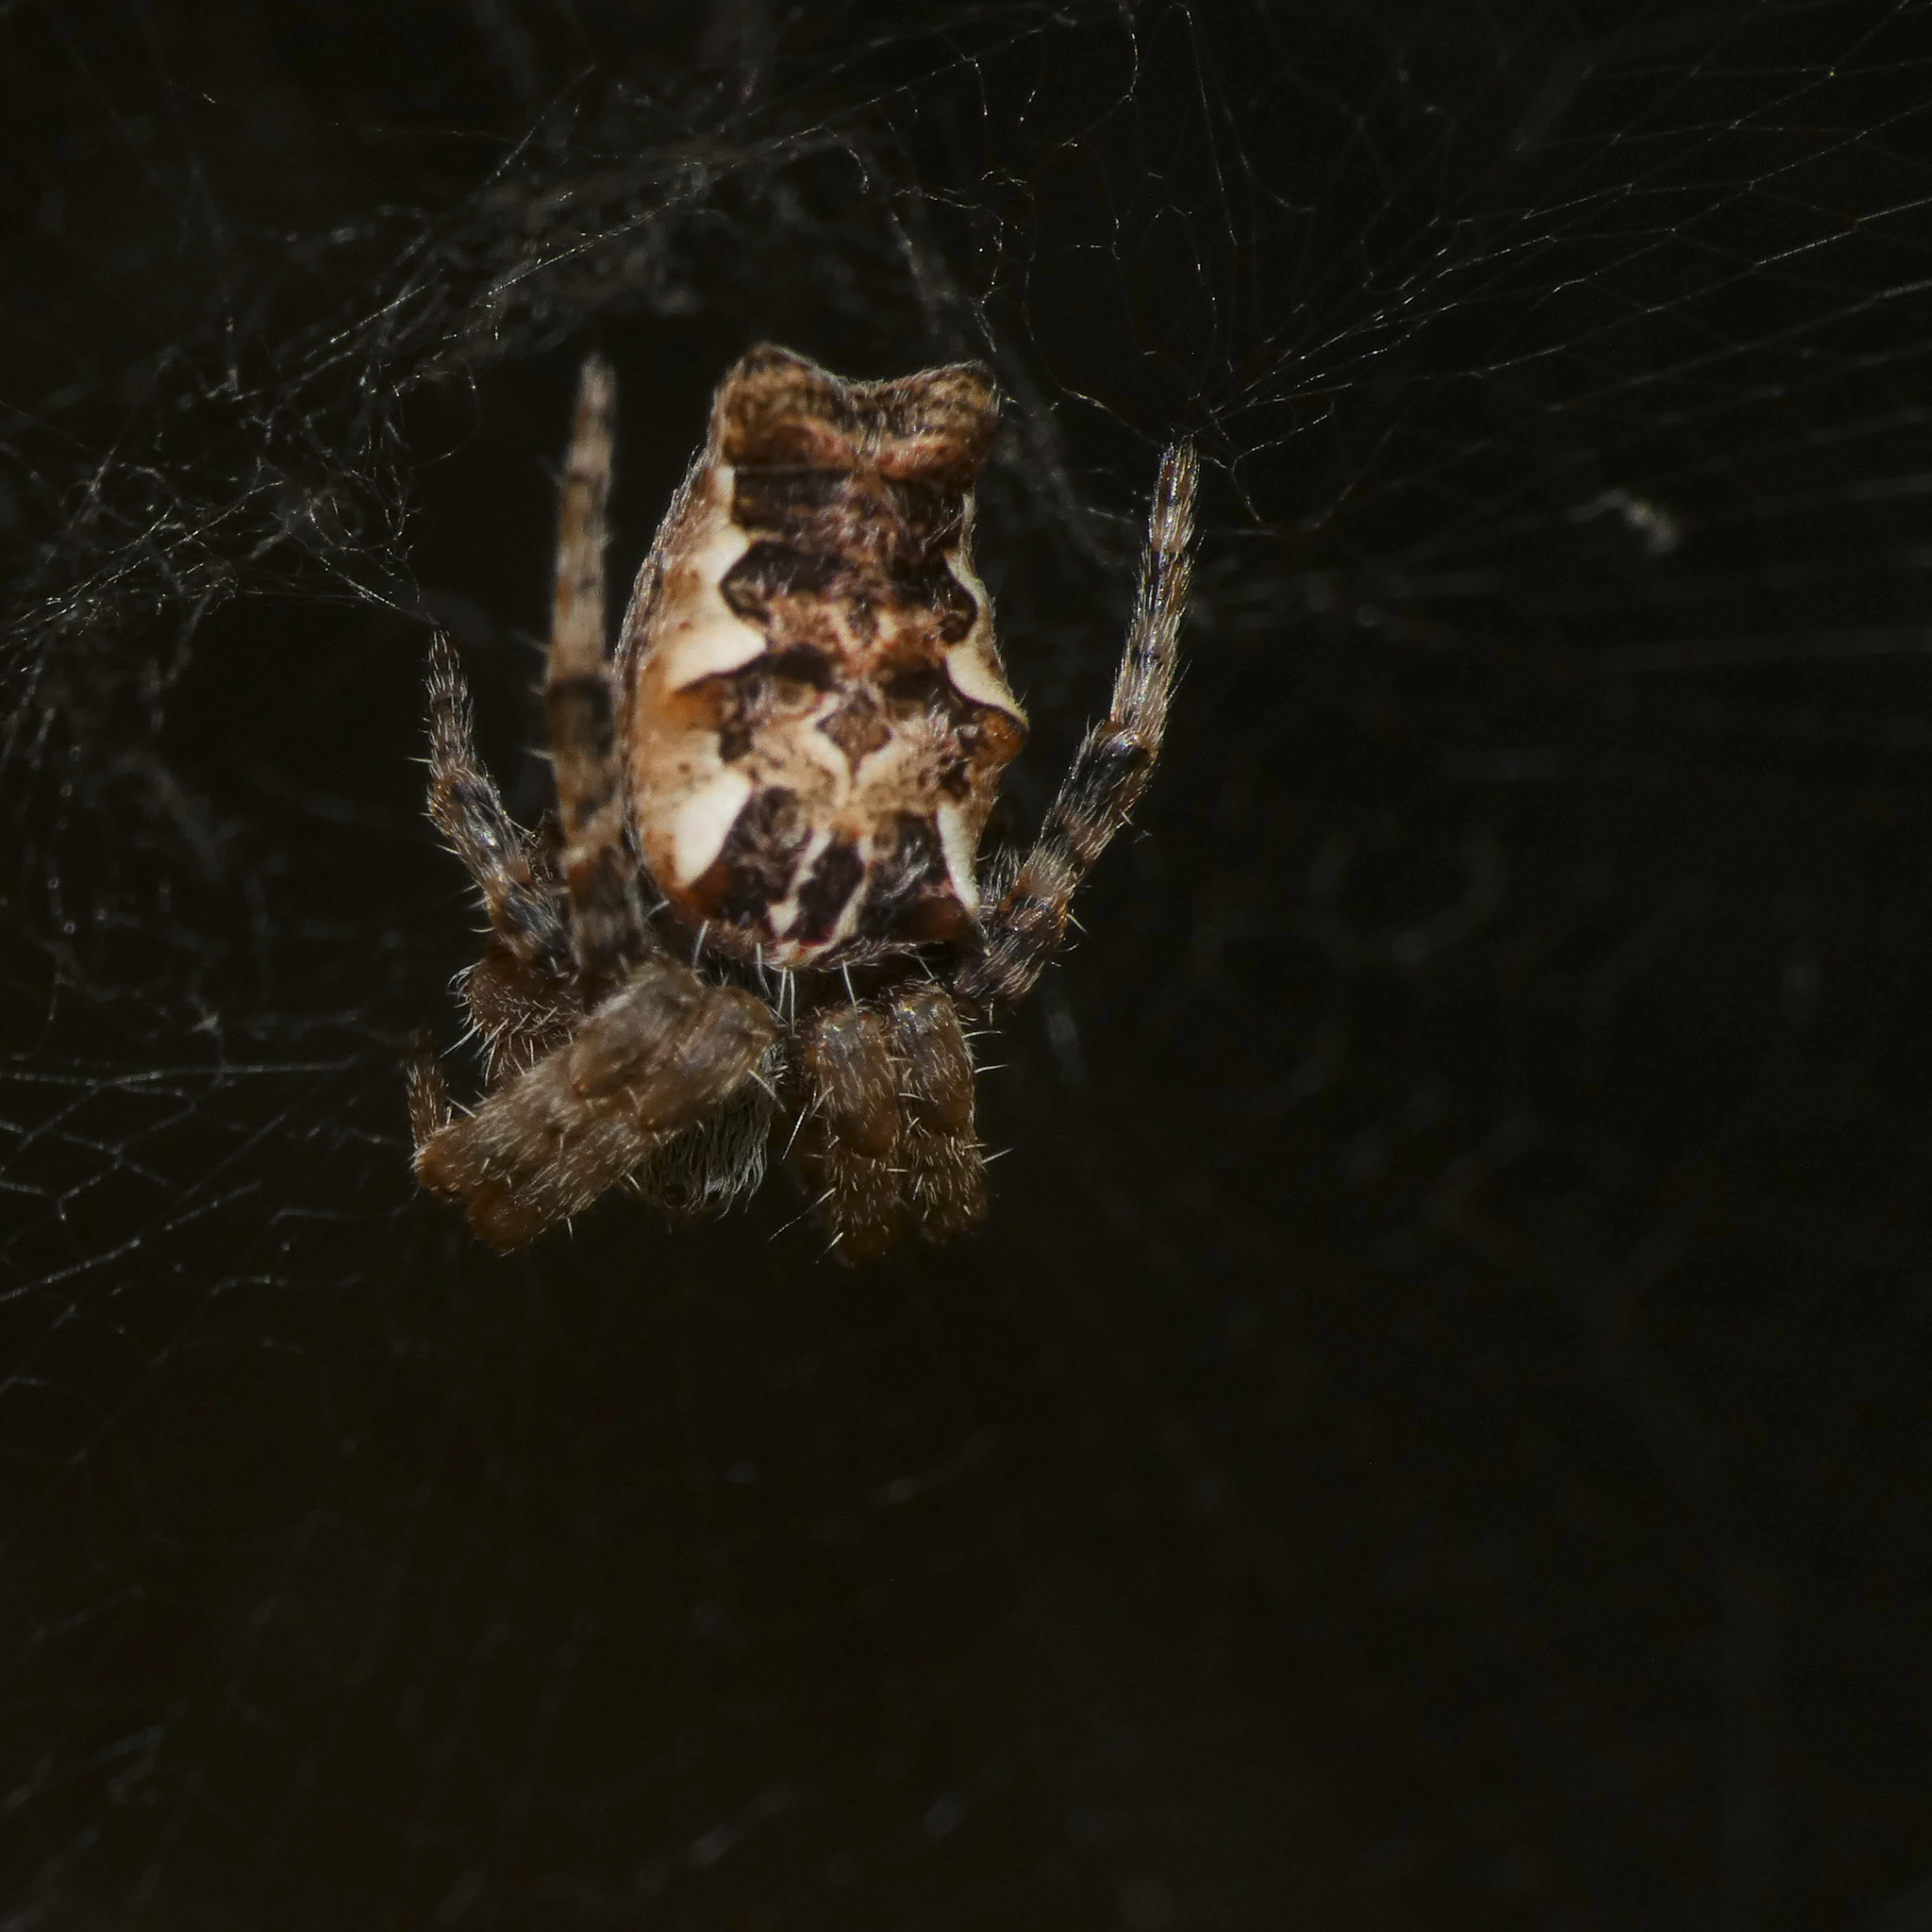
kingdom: Animalia
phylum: Arthropoda
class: Arachnida
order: Araneae
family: Araneidae
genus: Cyrtophora
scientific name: Cyrtophora citricola
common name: Orb weavers
